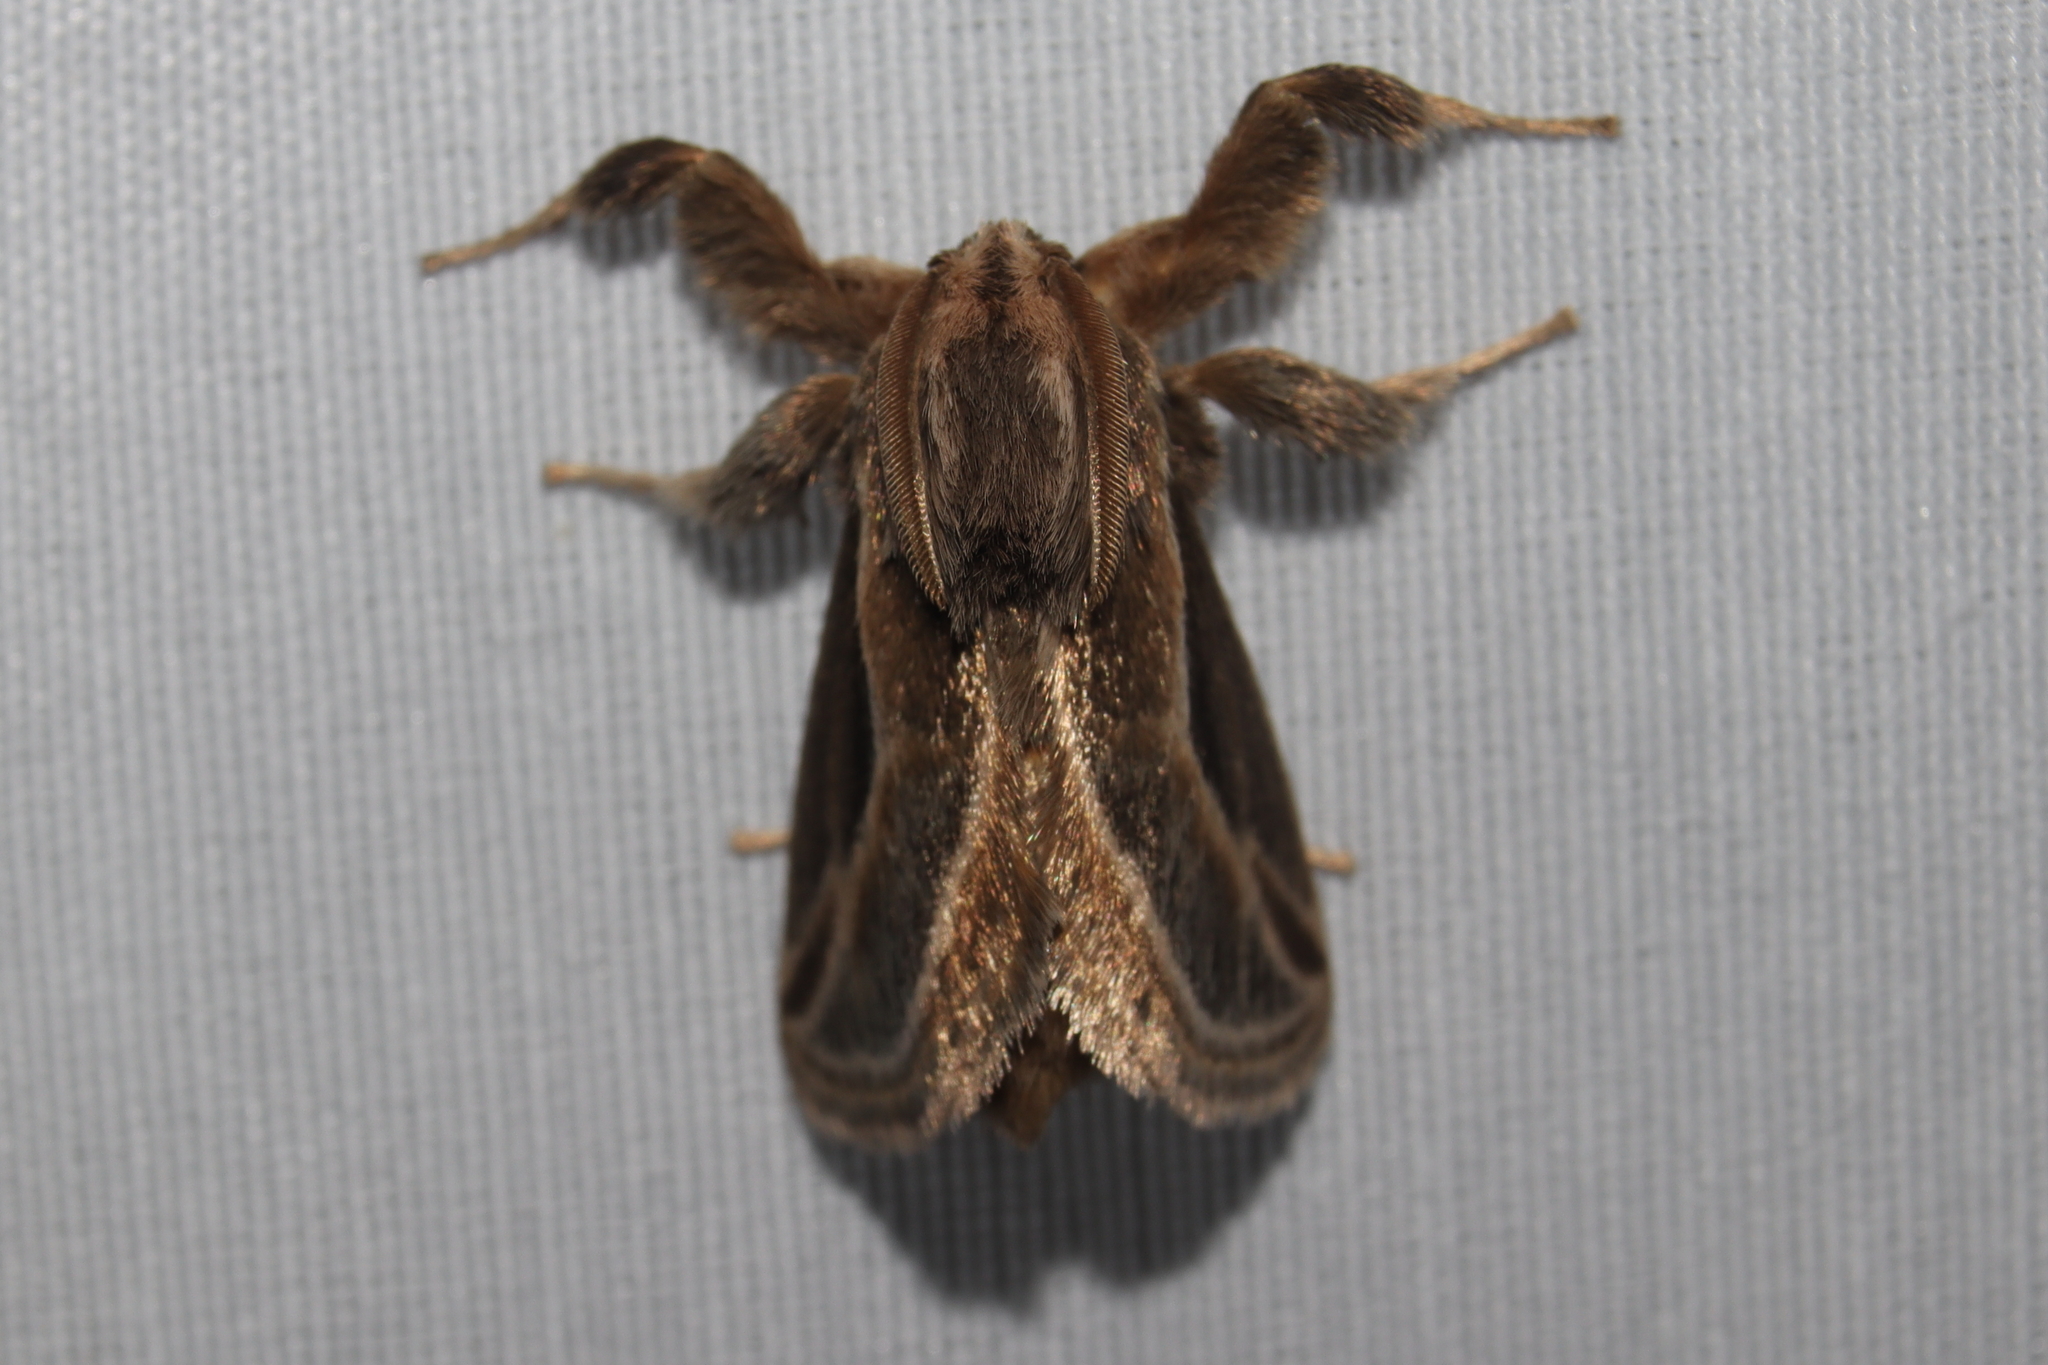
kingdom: Animalia
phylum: Arthropoda
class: Insecta
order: Lepidoptera
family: Limacodidae
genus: Perola
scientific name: Perola brumalis
